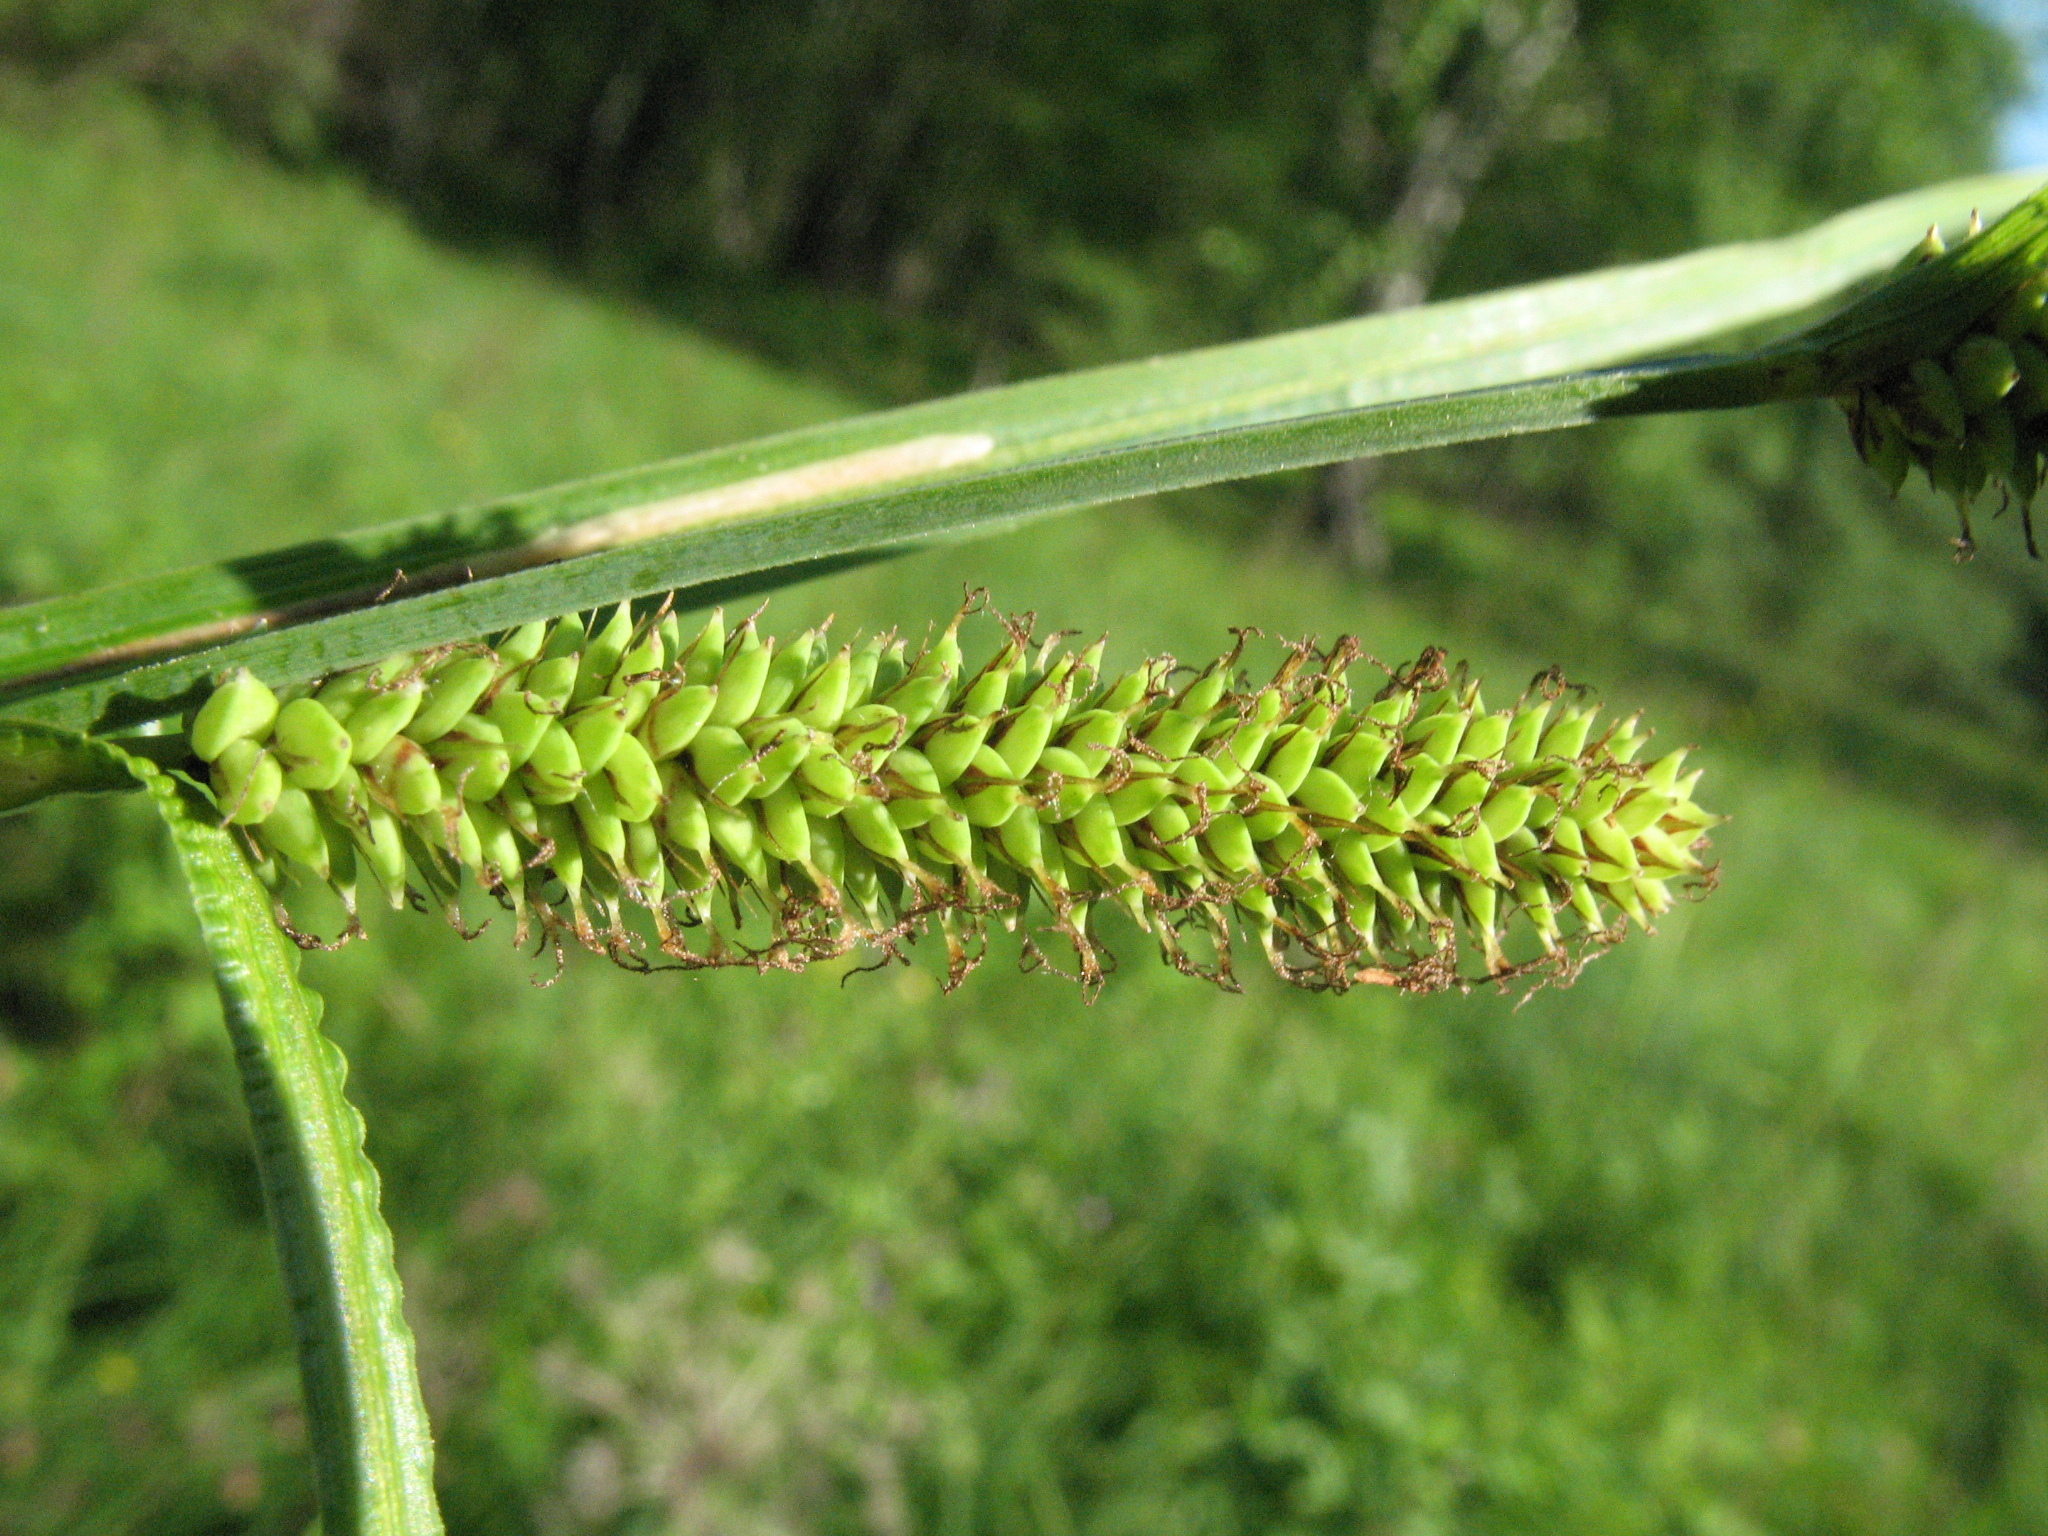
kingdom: Plantae
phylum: Tracheophyta
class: Liliopsida
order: Poales
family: Cyperaceae
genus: Carex
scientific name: Carex acutiformis
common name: Lesser pond-sedge
